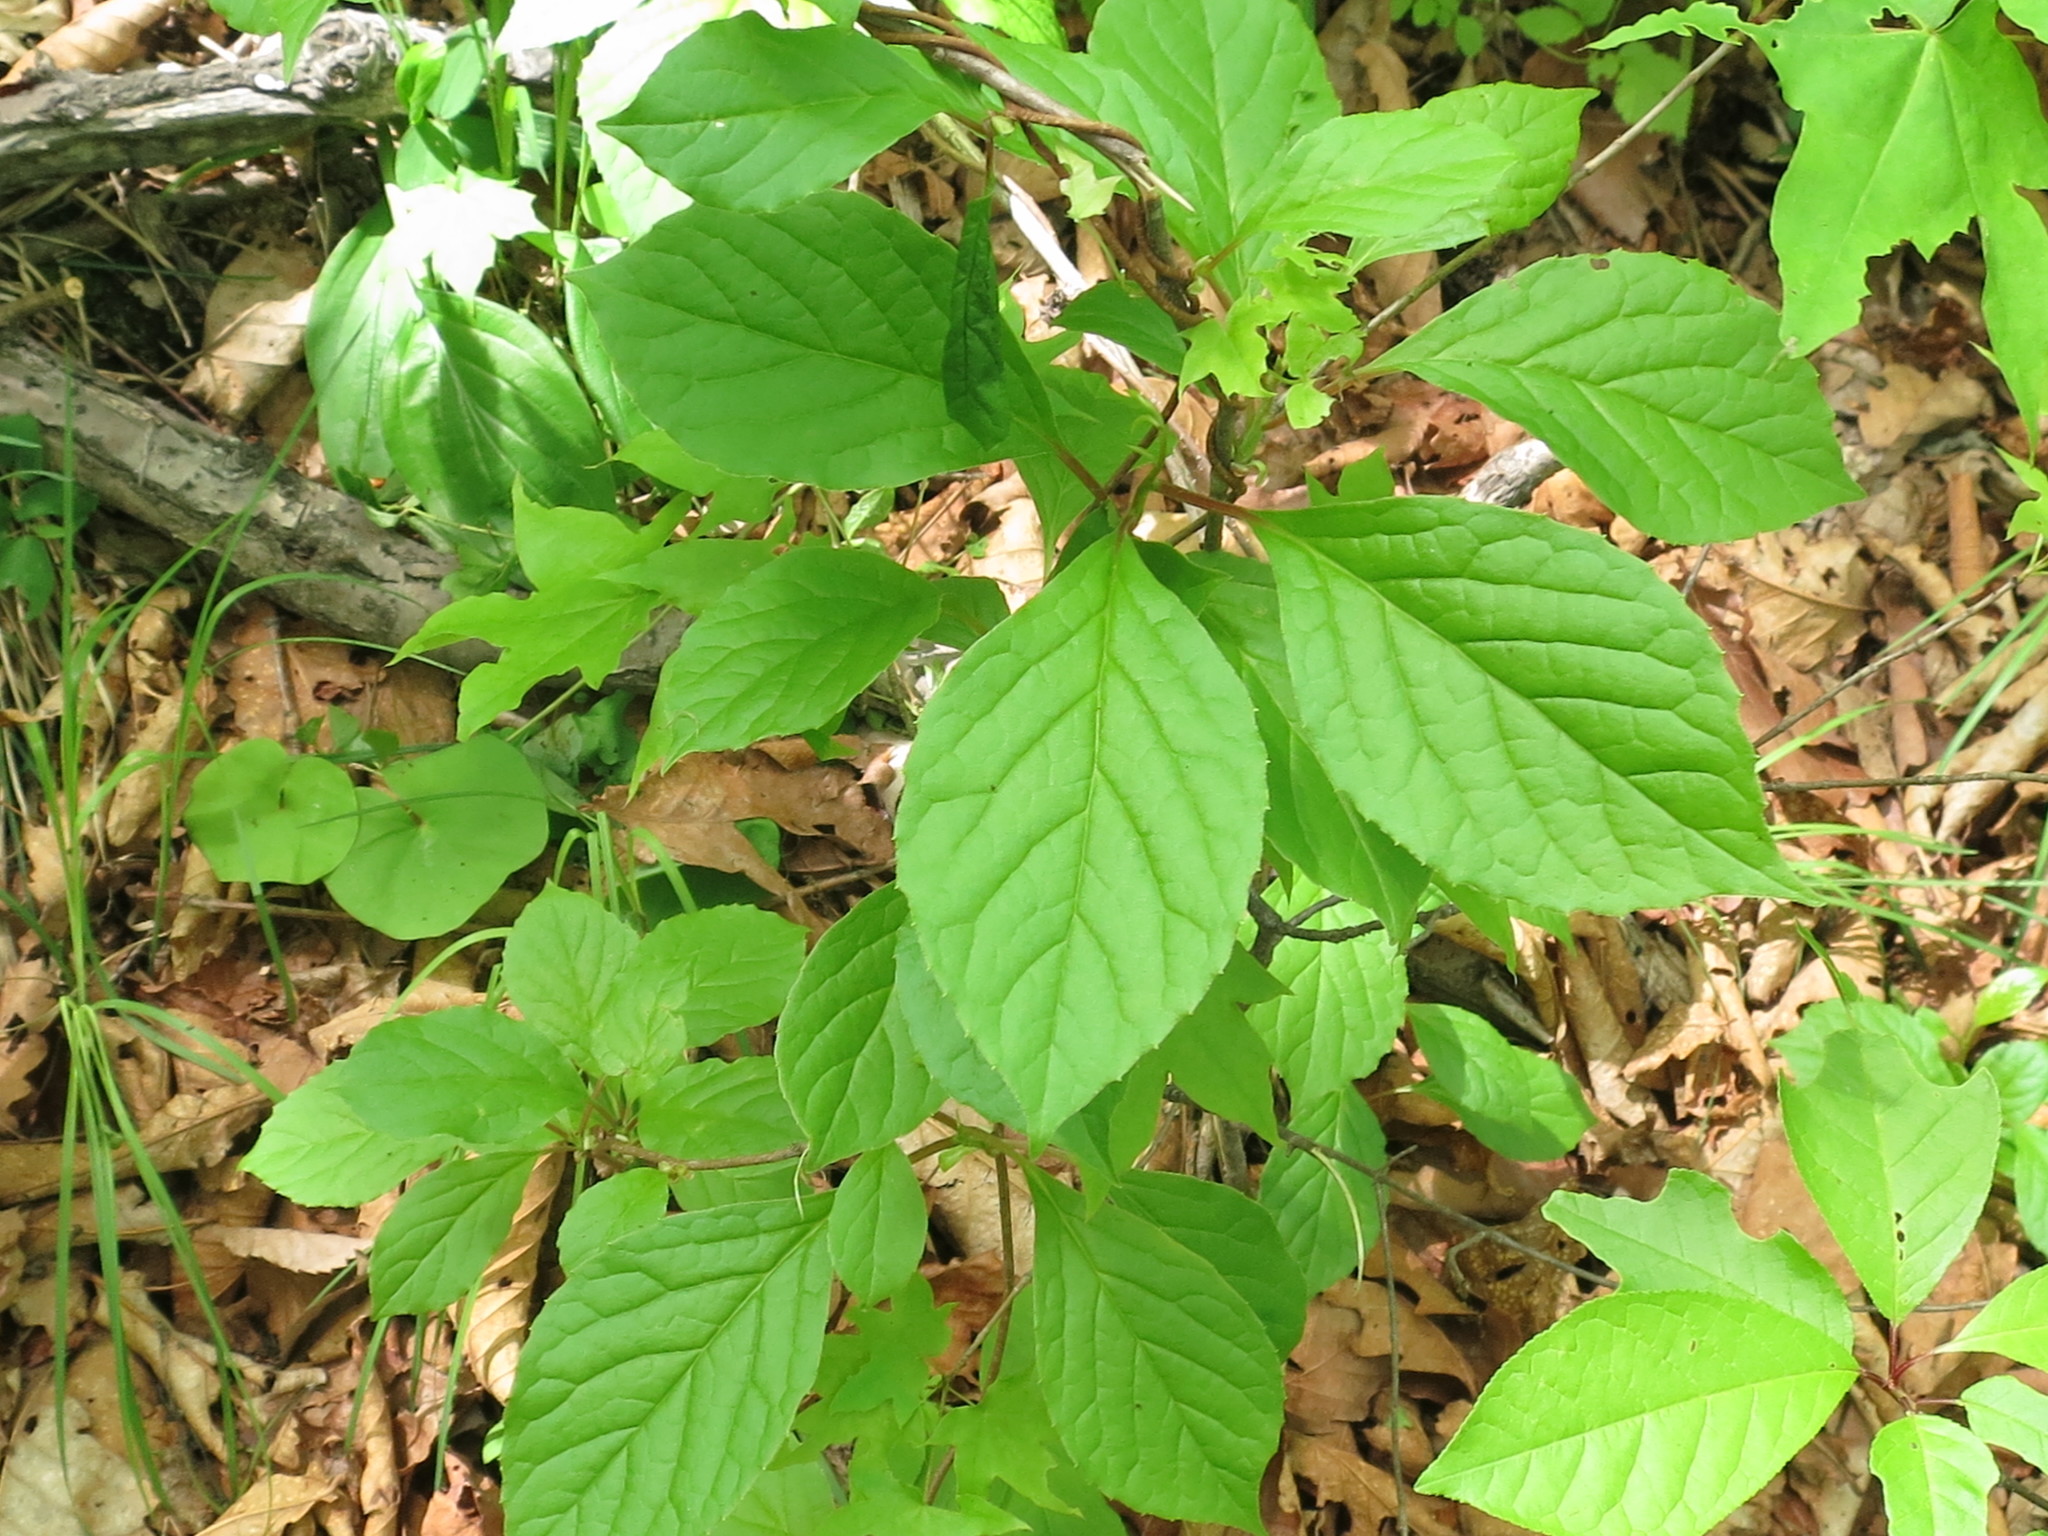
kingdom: Plantae
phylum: Tracheophyta
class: Magnoliopsida
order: Austrobaileyales
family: Schisandraceae
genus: Schisandra
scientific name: Schisandra chinensis
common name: Magnolia-vine
